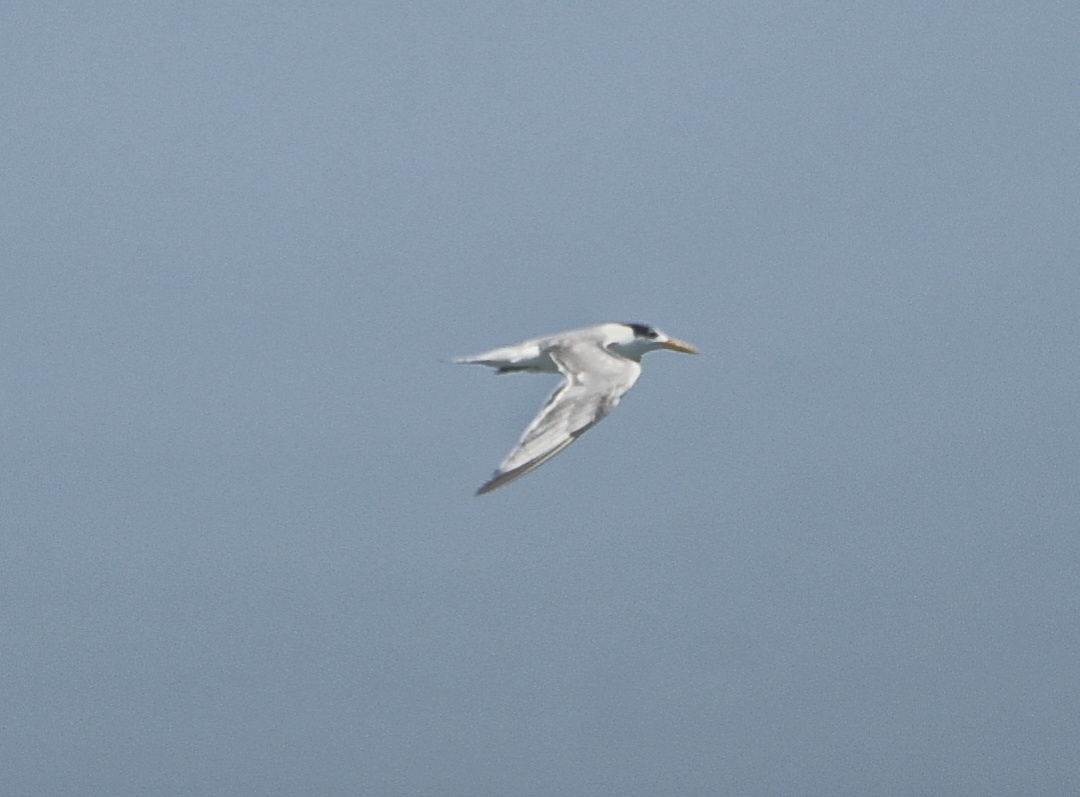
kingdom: Animalia
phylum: Chordata
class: Aves
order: Charadriiformes
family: Laridae
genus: Thalasseus
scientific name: Thalasseus bengalensis
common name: Lesser crested tern
